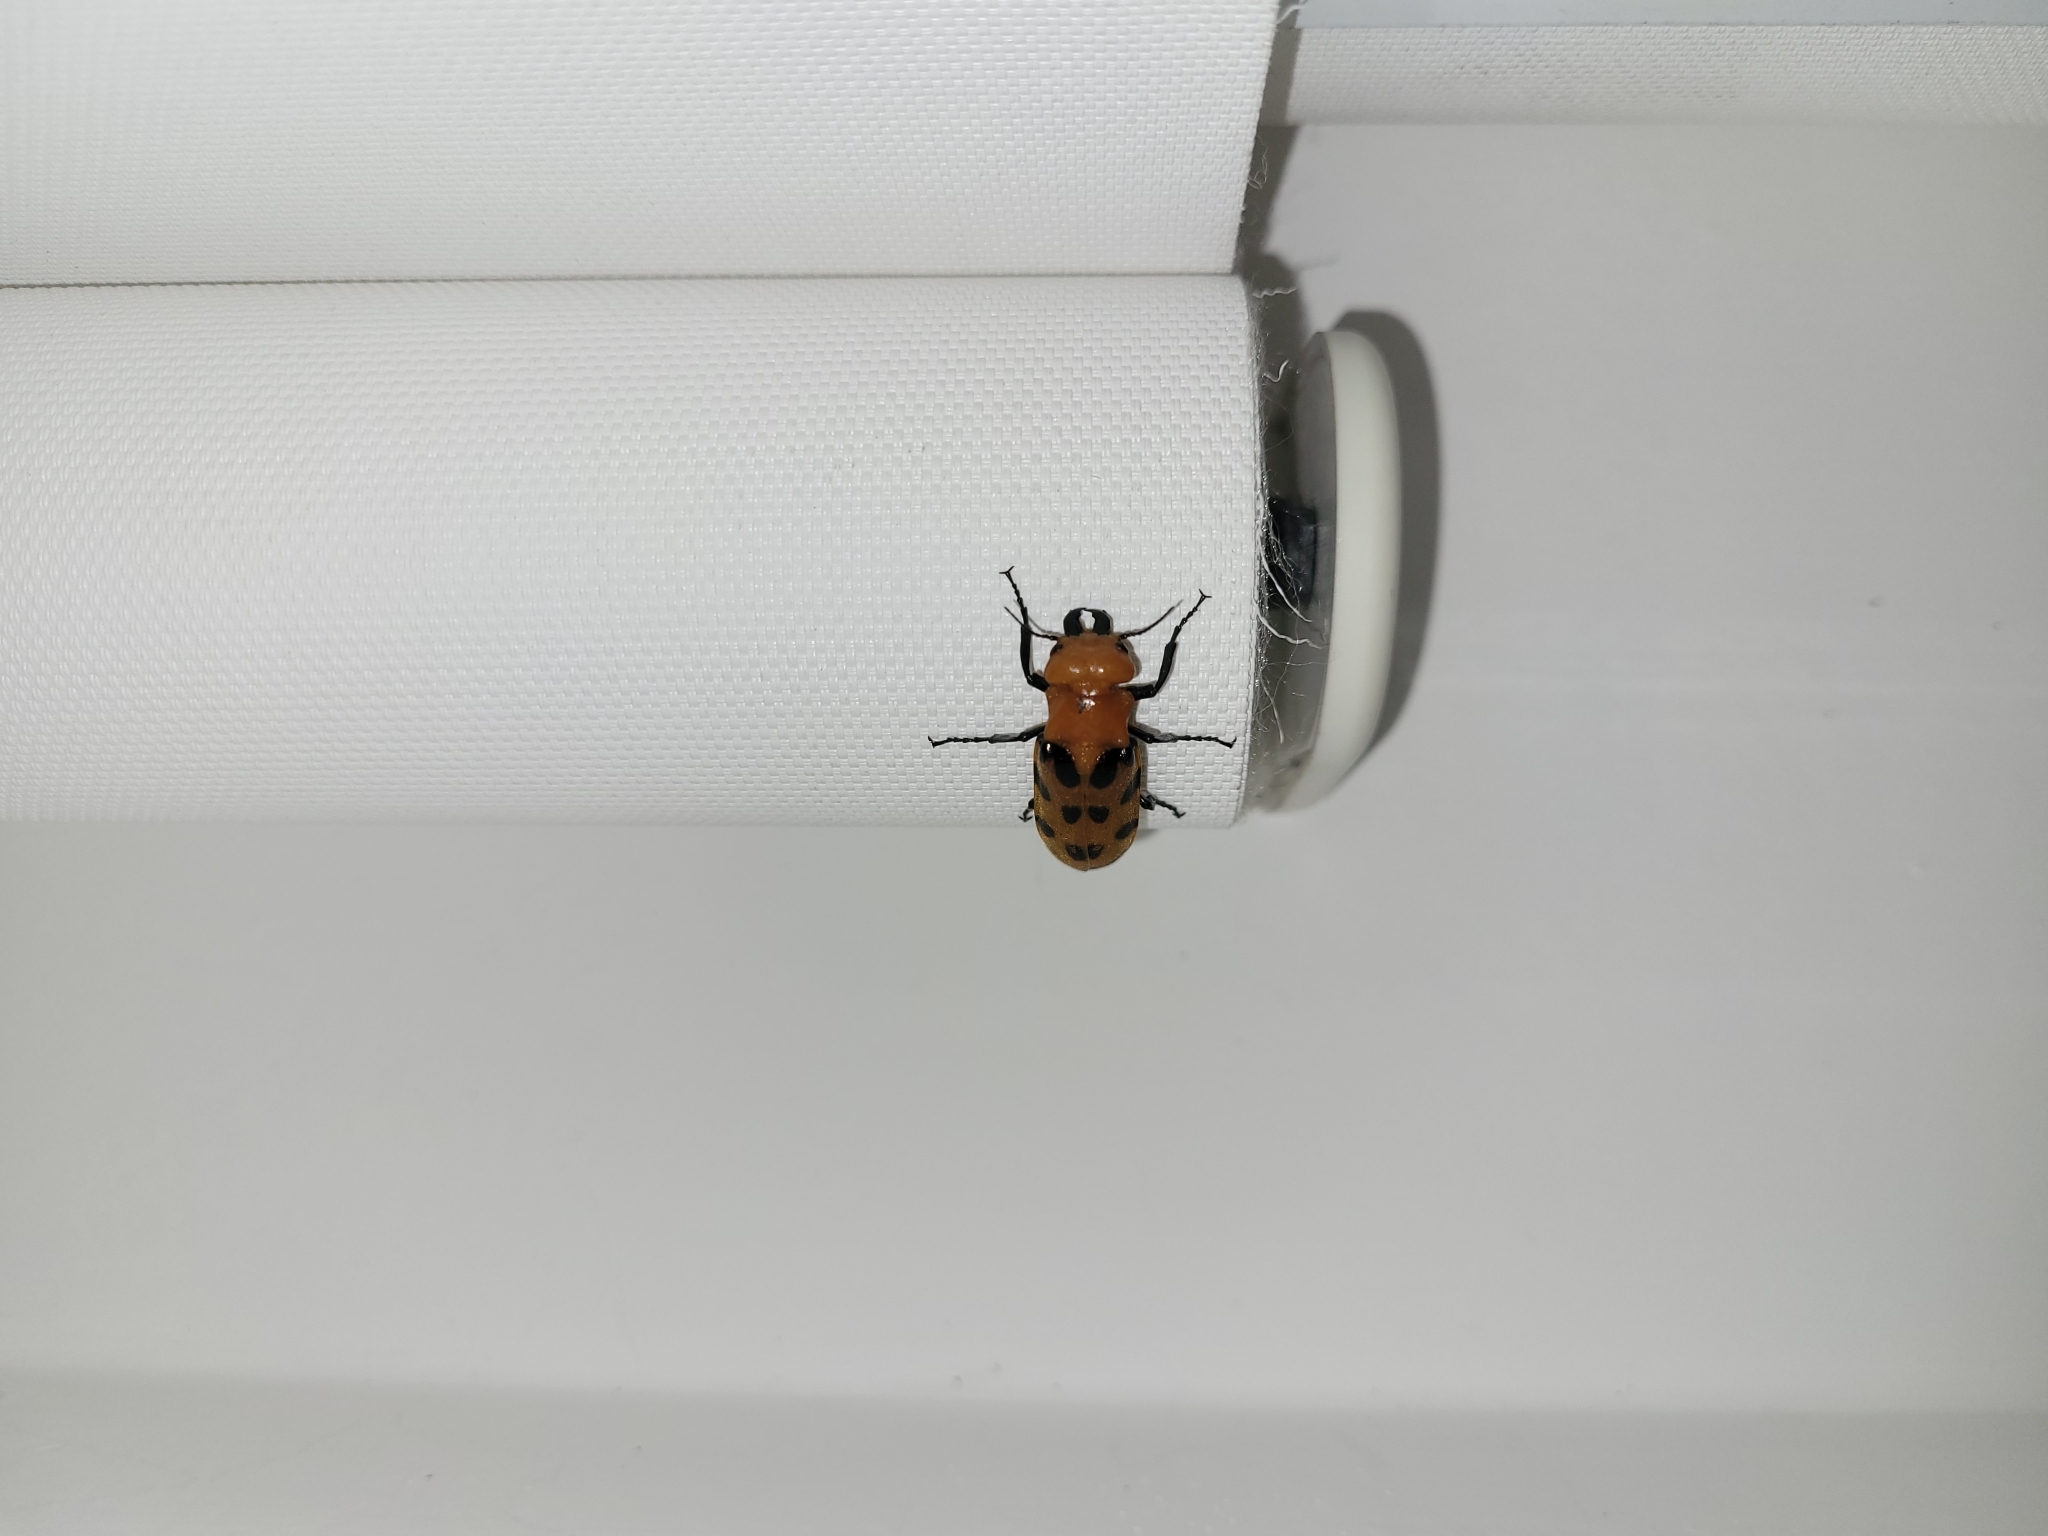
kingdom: Animalia
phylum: Arthropoda
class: Insecta
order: Coleoptera
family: Meloidae
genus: Cissites
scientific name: Cissites maculata
